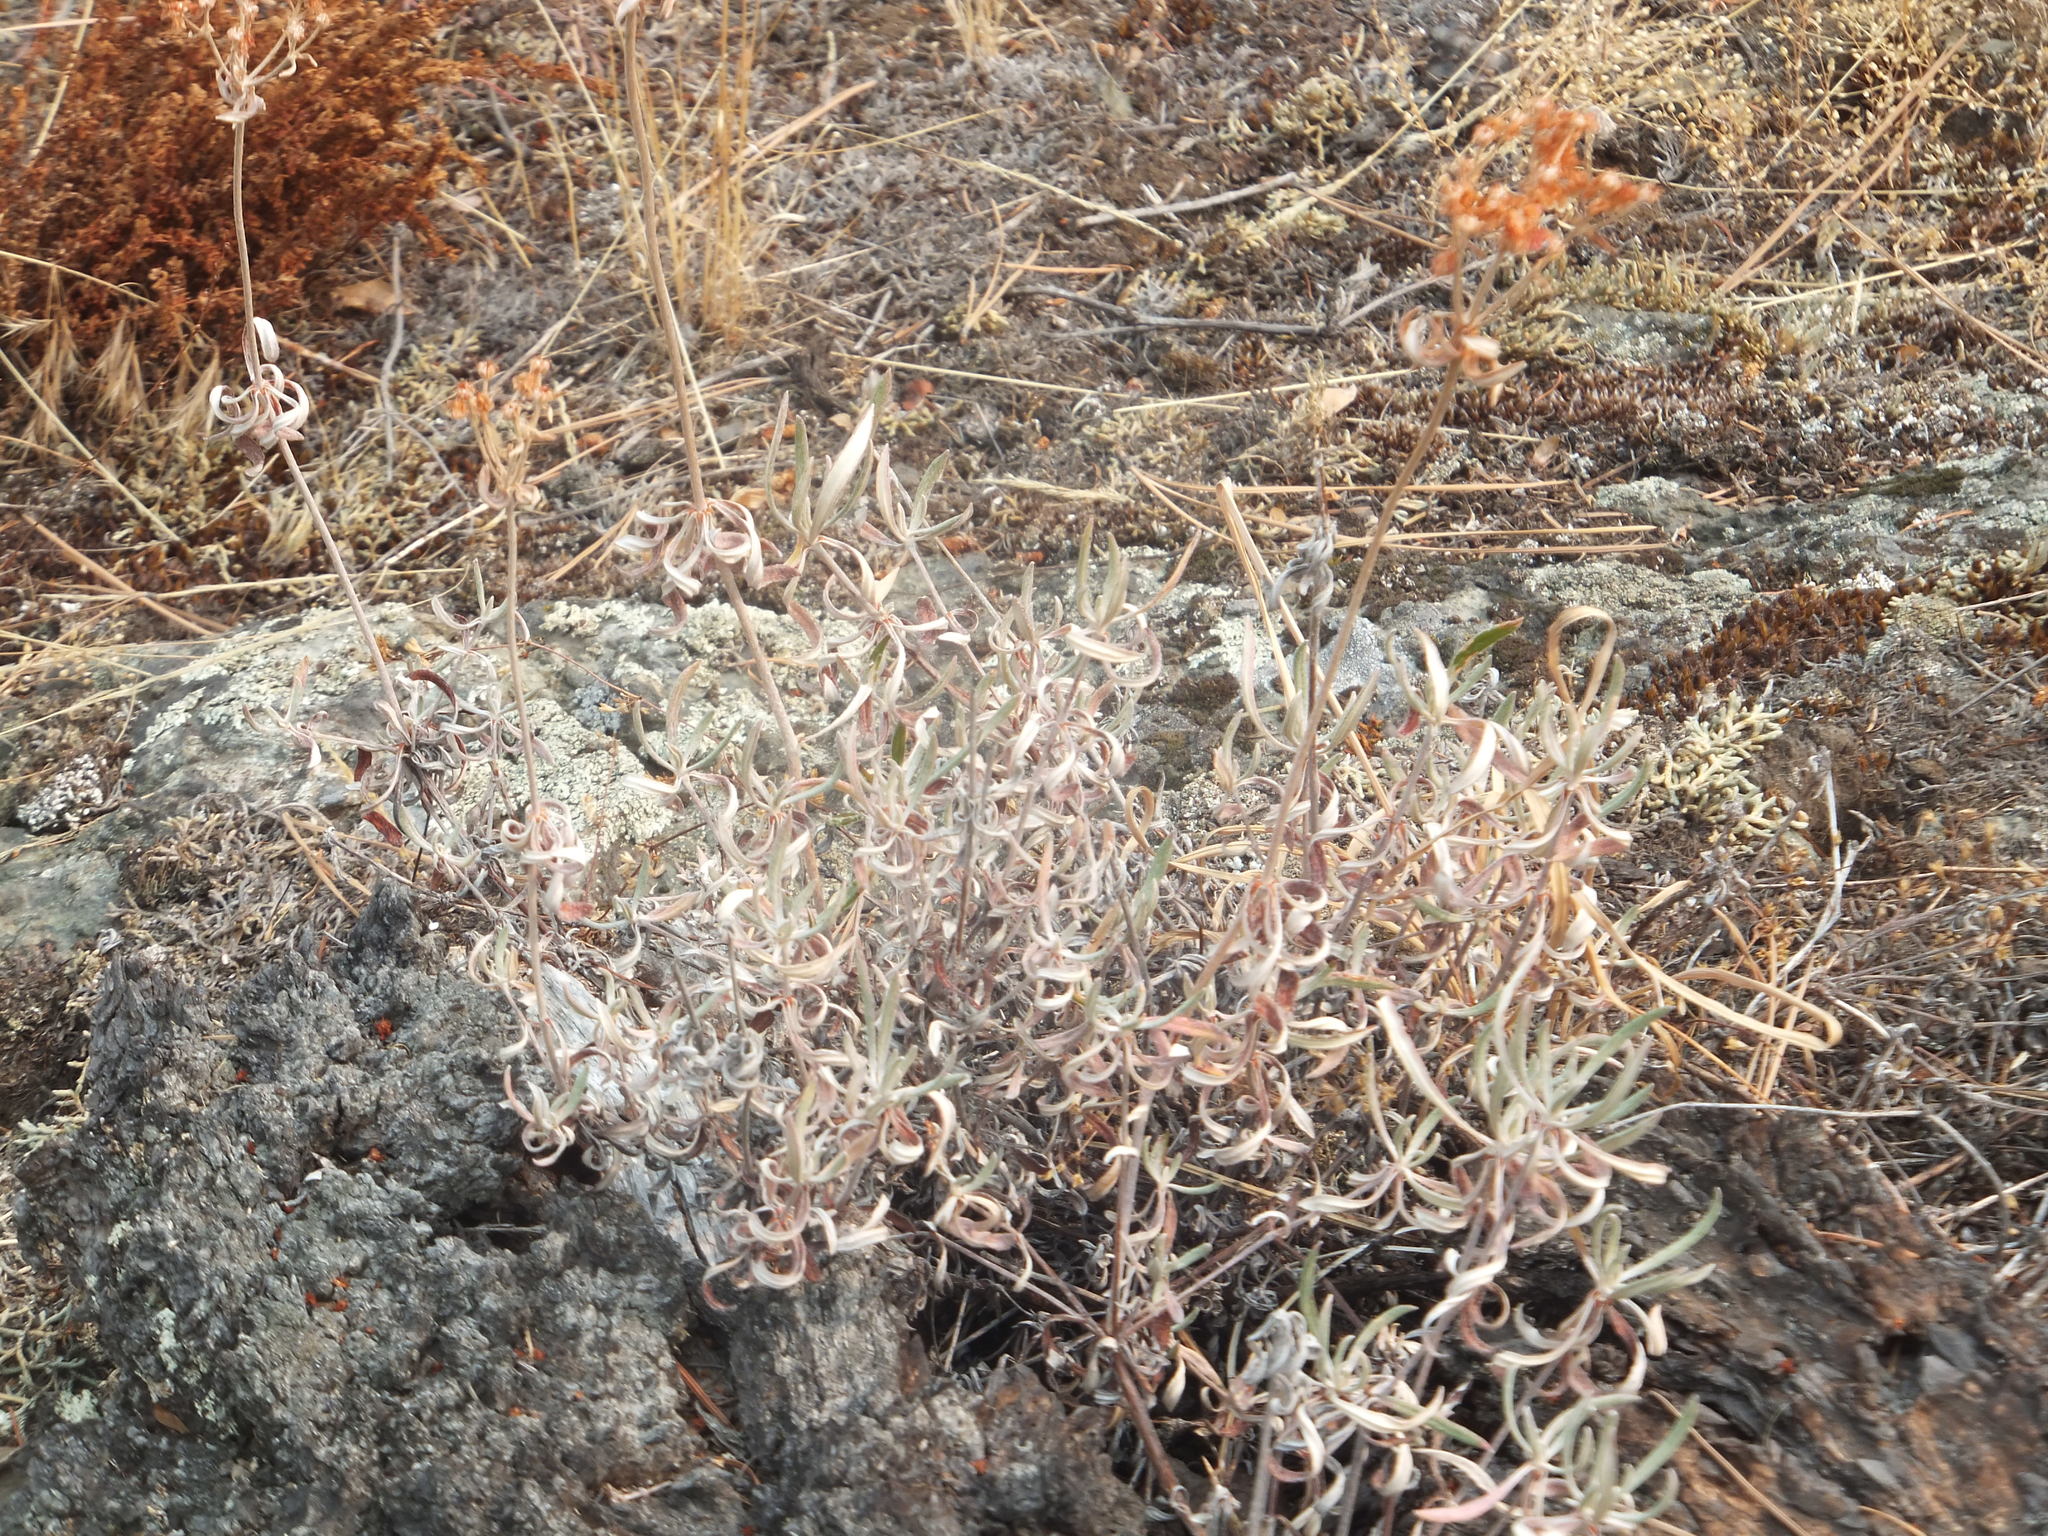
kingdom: Plantae
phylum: Tracheophyta
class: Magnoliopsida
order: Caryophyllales
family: Polygonaceae
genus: Eriogonum
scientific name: Eriogonum heracleoides
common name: Wyeth's buckwheat
